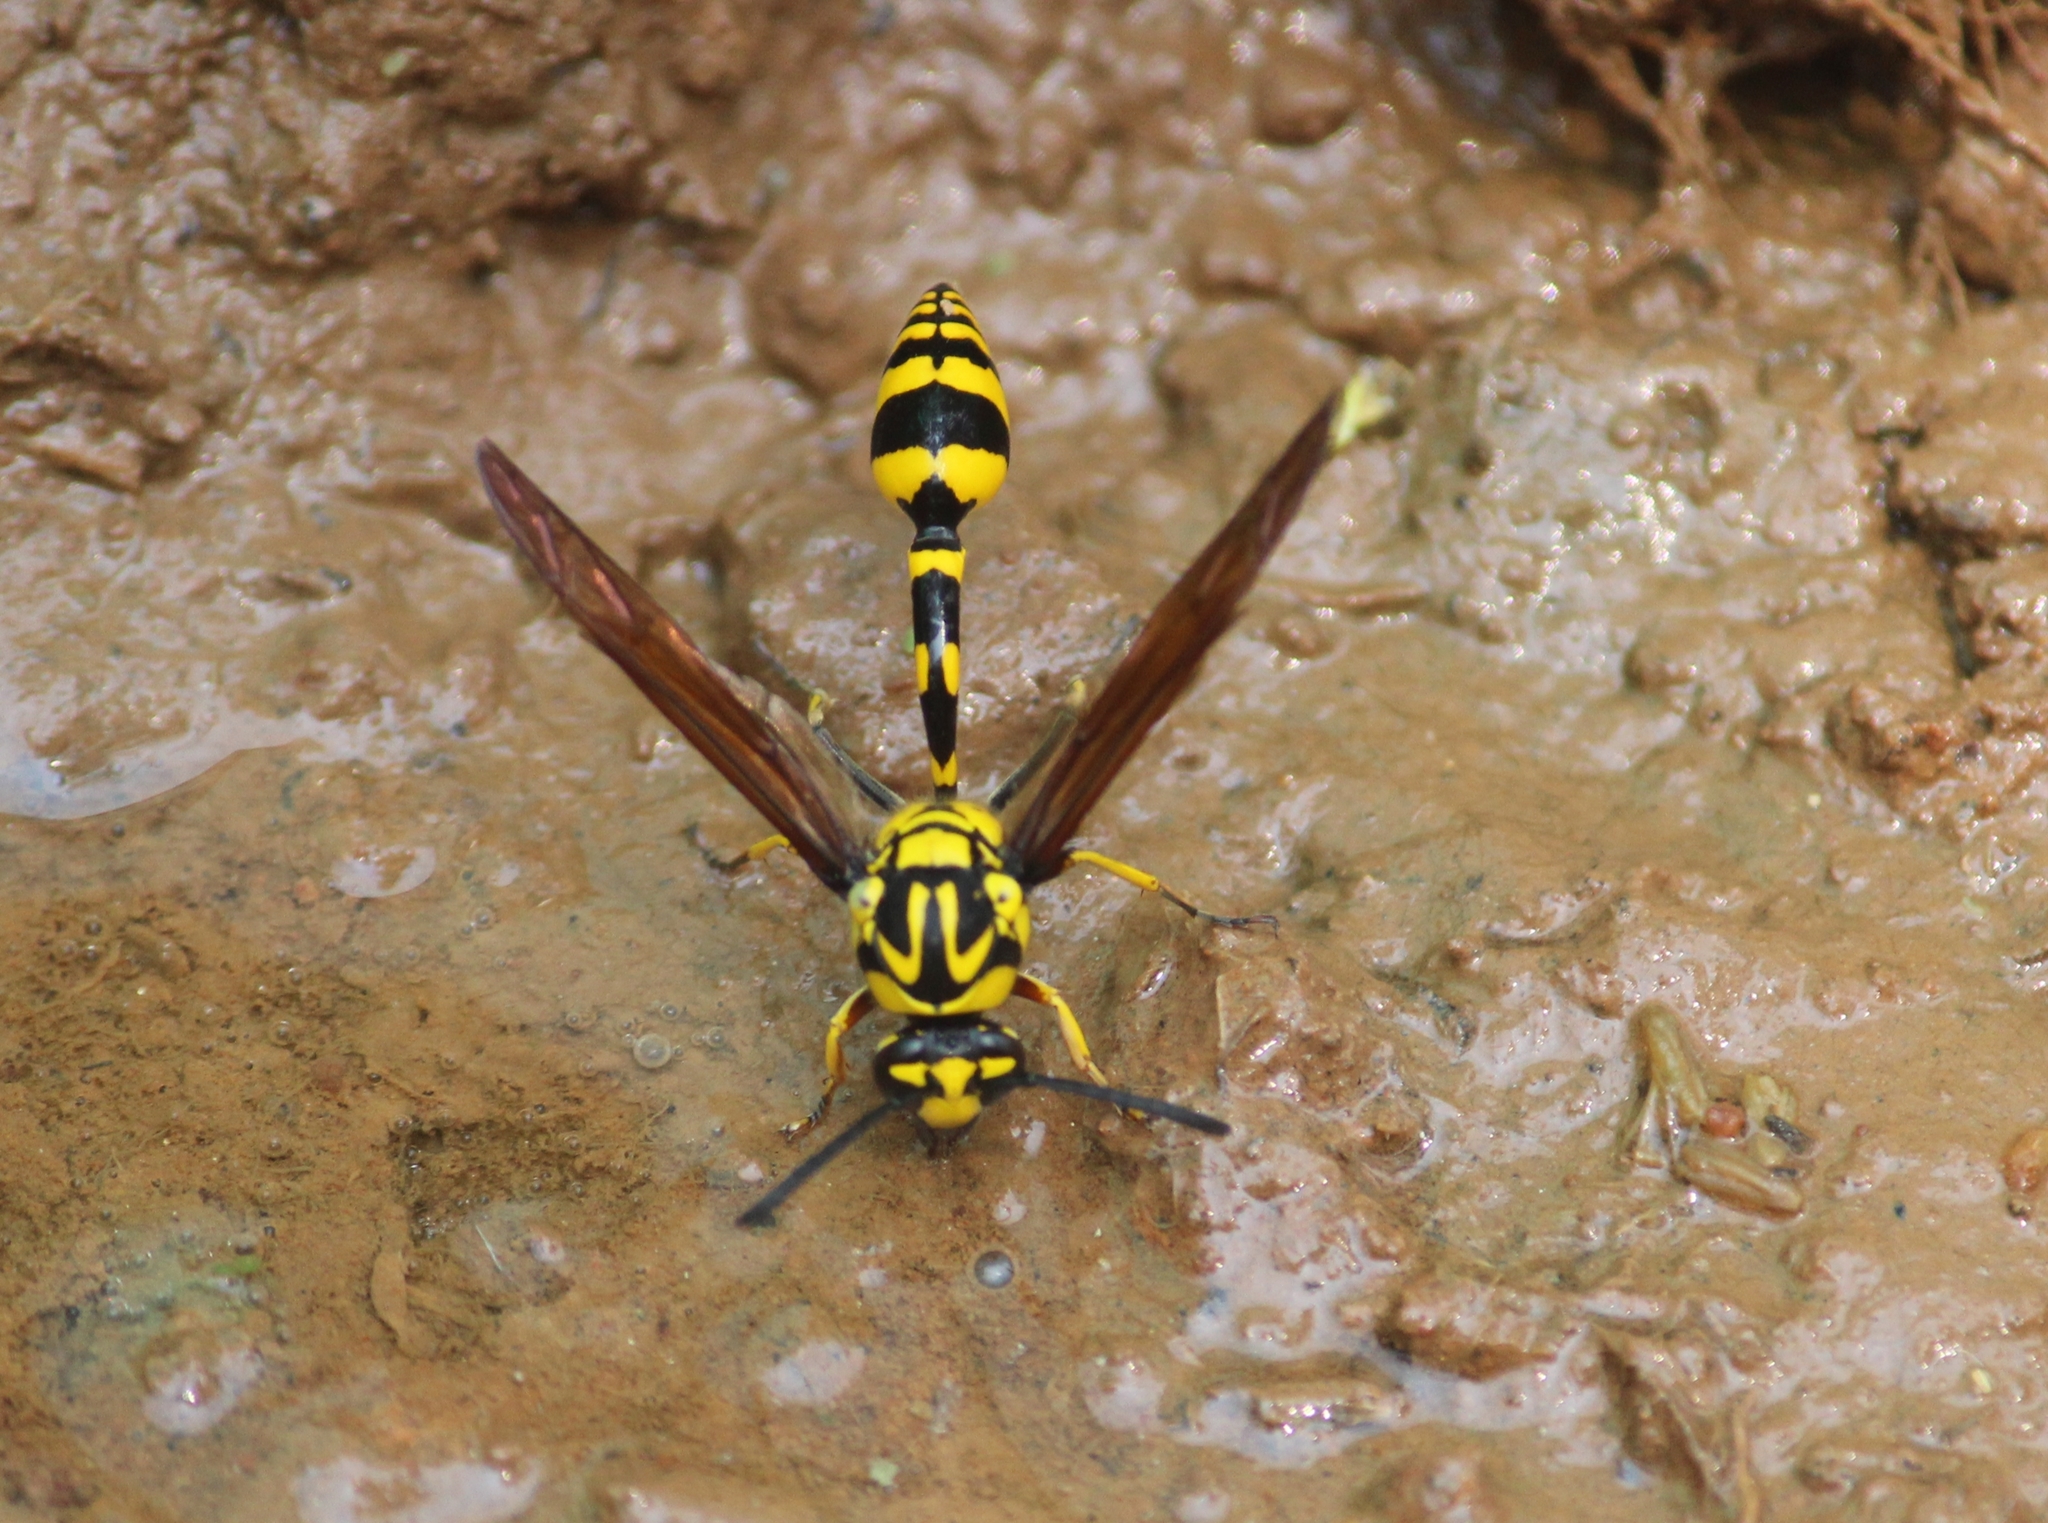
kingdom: Animalia
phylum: Arthropoda
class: Insecta
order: Hymenoptera
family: Eumenidae
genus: Phimenes
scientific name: Phimenes flavopictus
